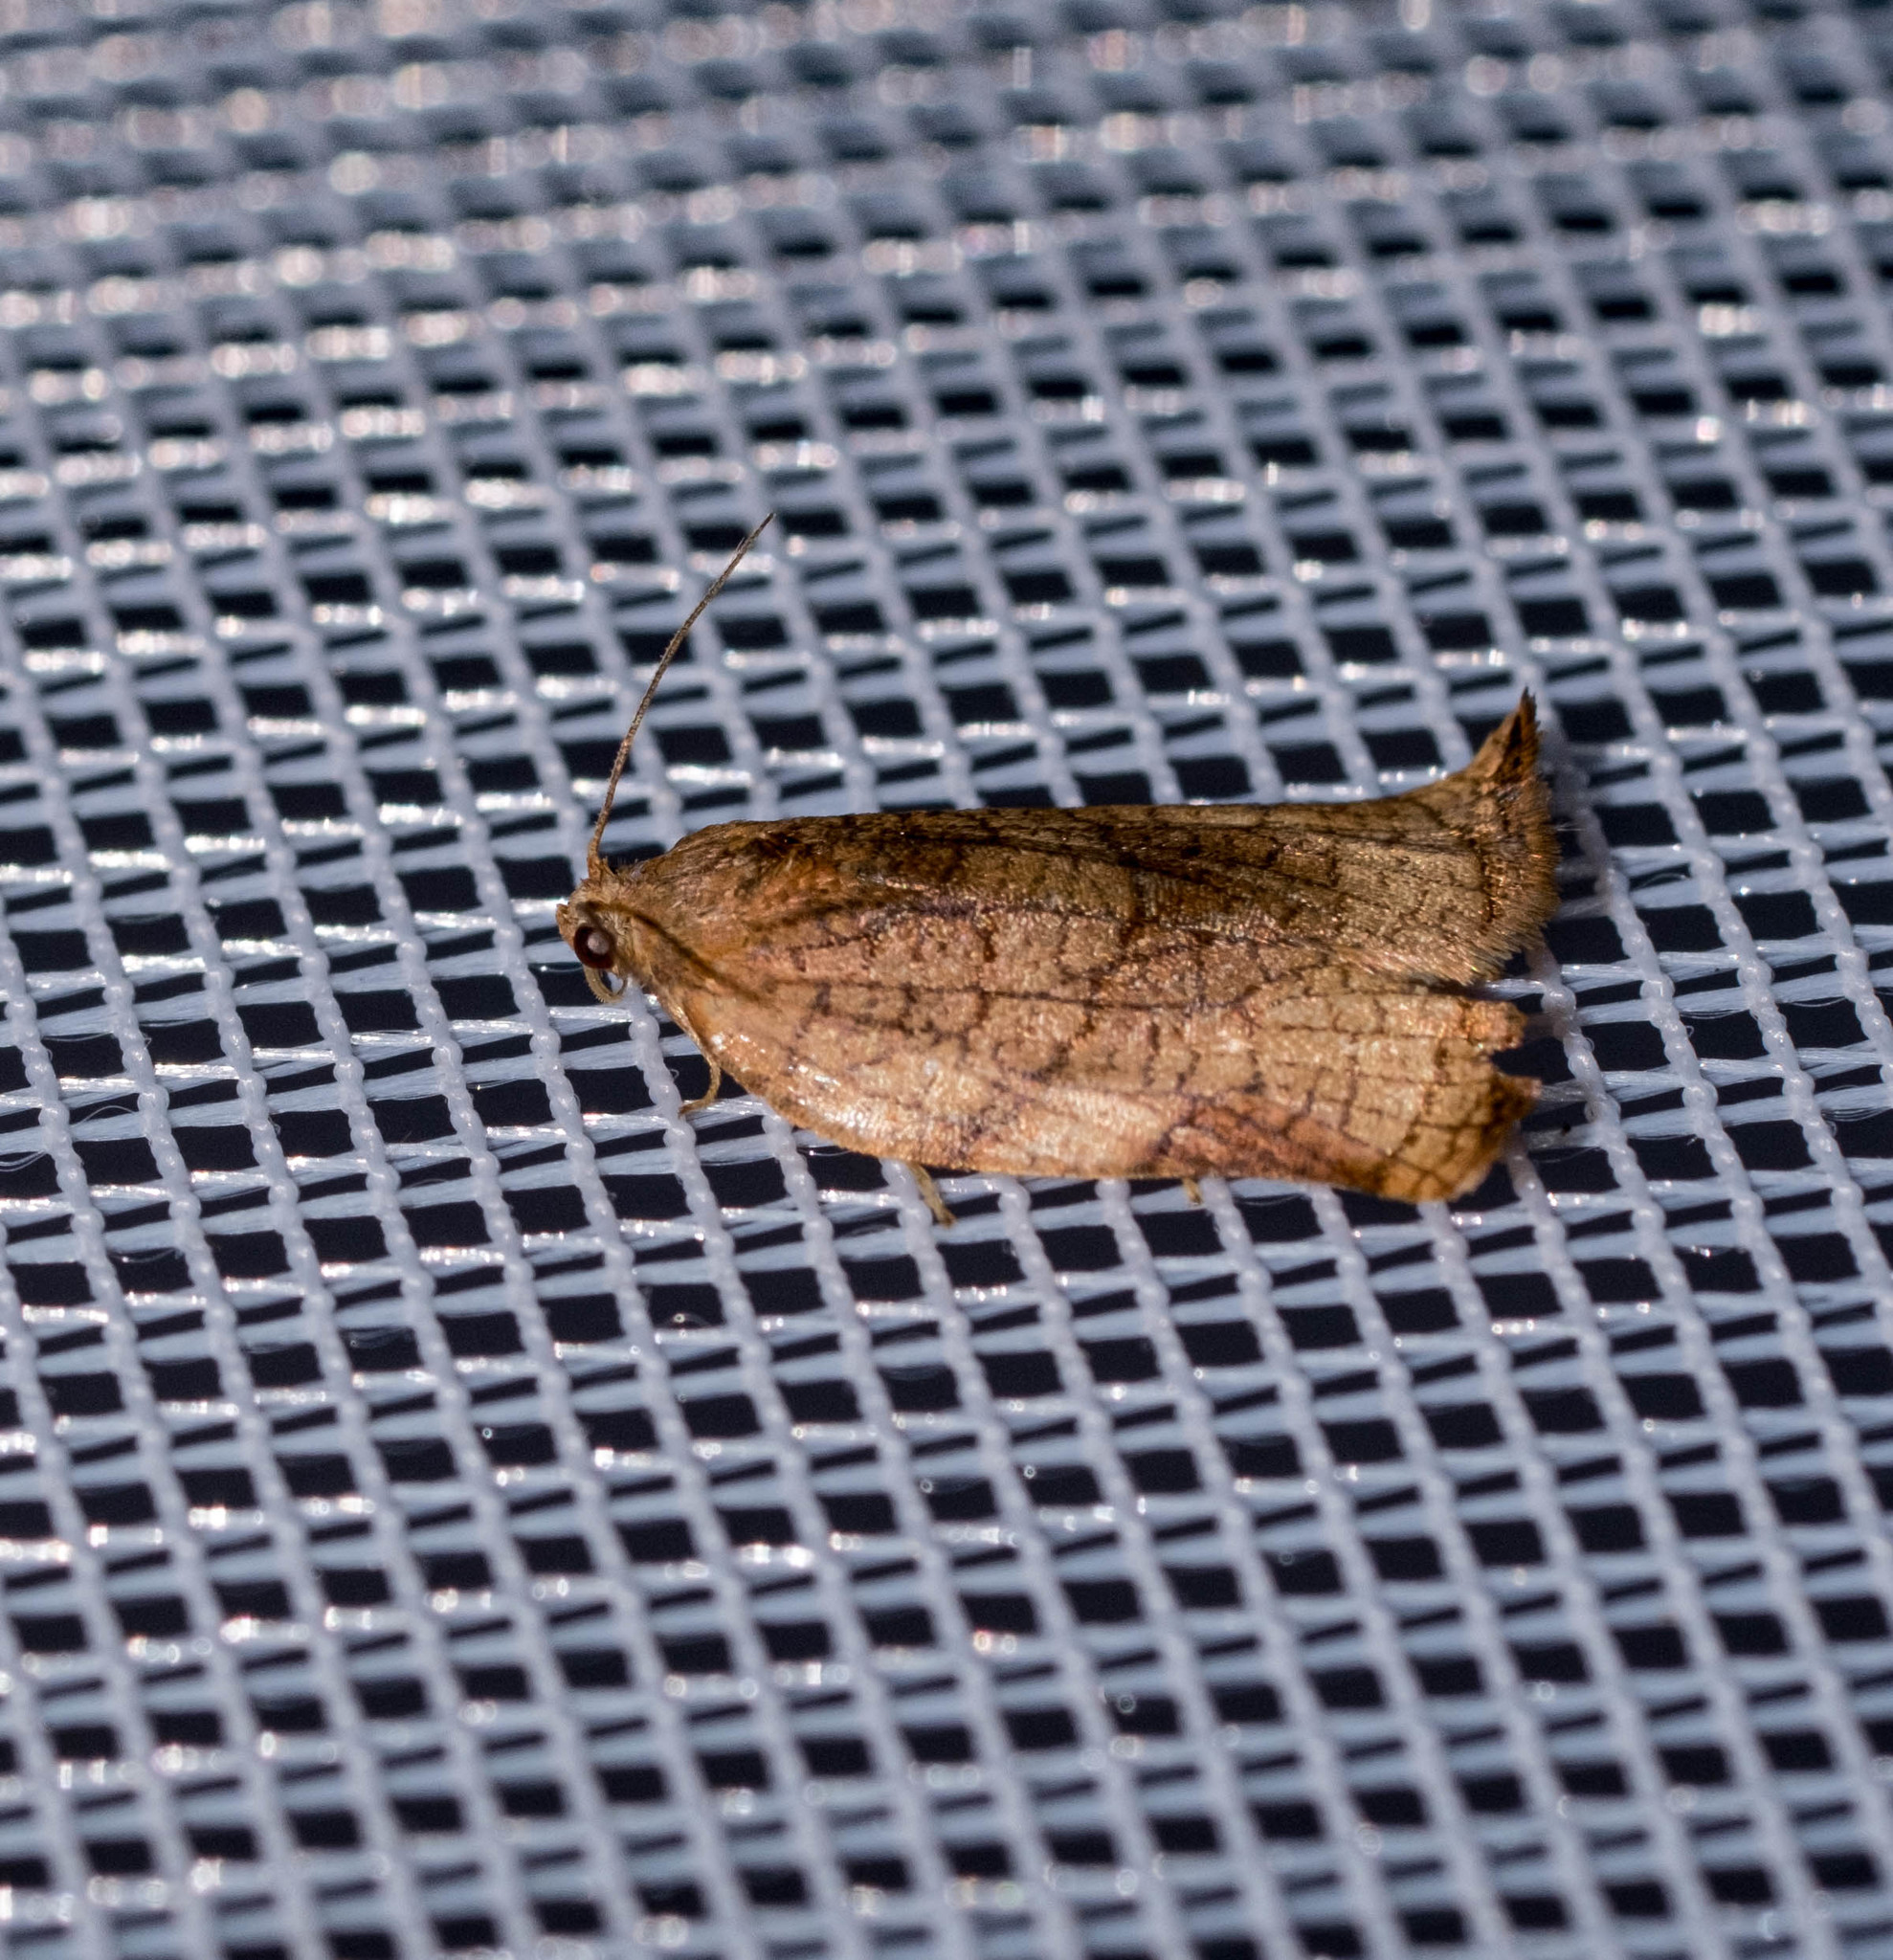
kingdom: Animalia
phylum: Arthropoda
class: Insecta
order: Lepidoptera
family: Tortricidae
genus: Archips
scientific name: Archips podana
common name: Large fruit-tree tortrix
